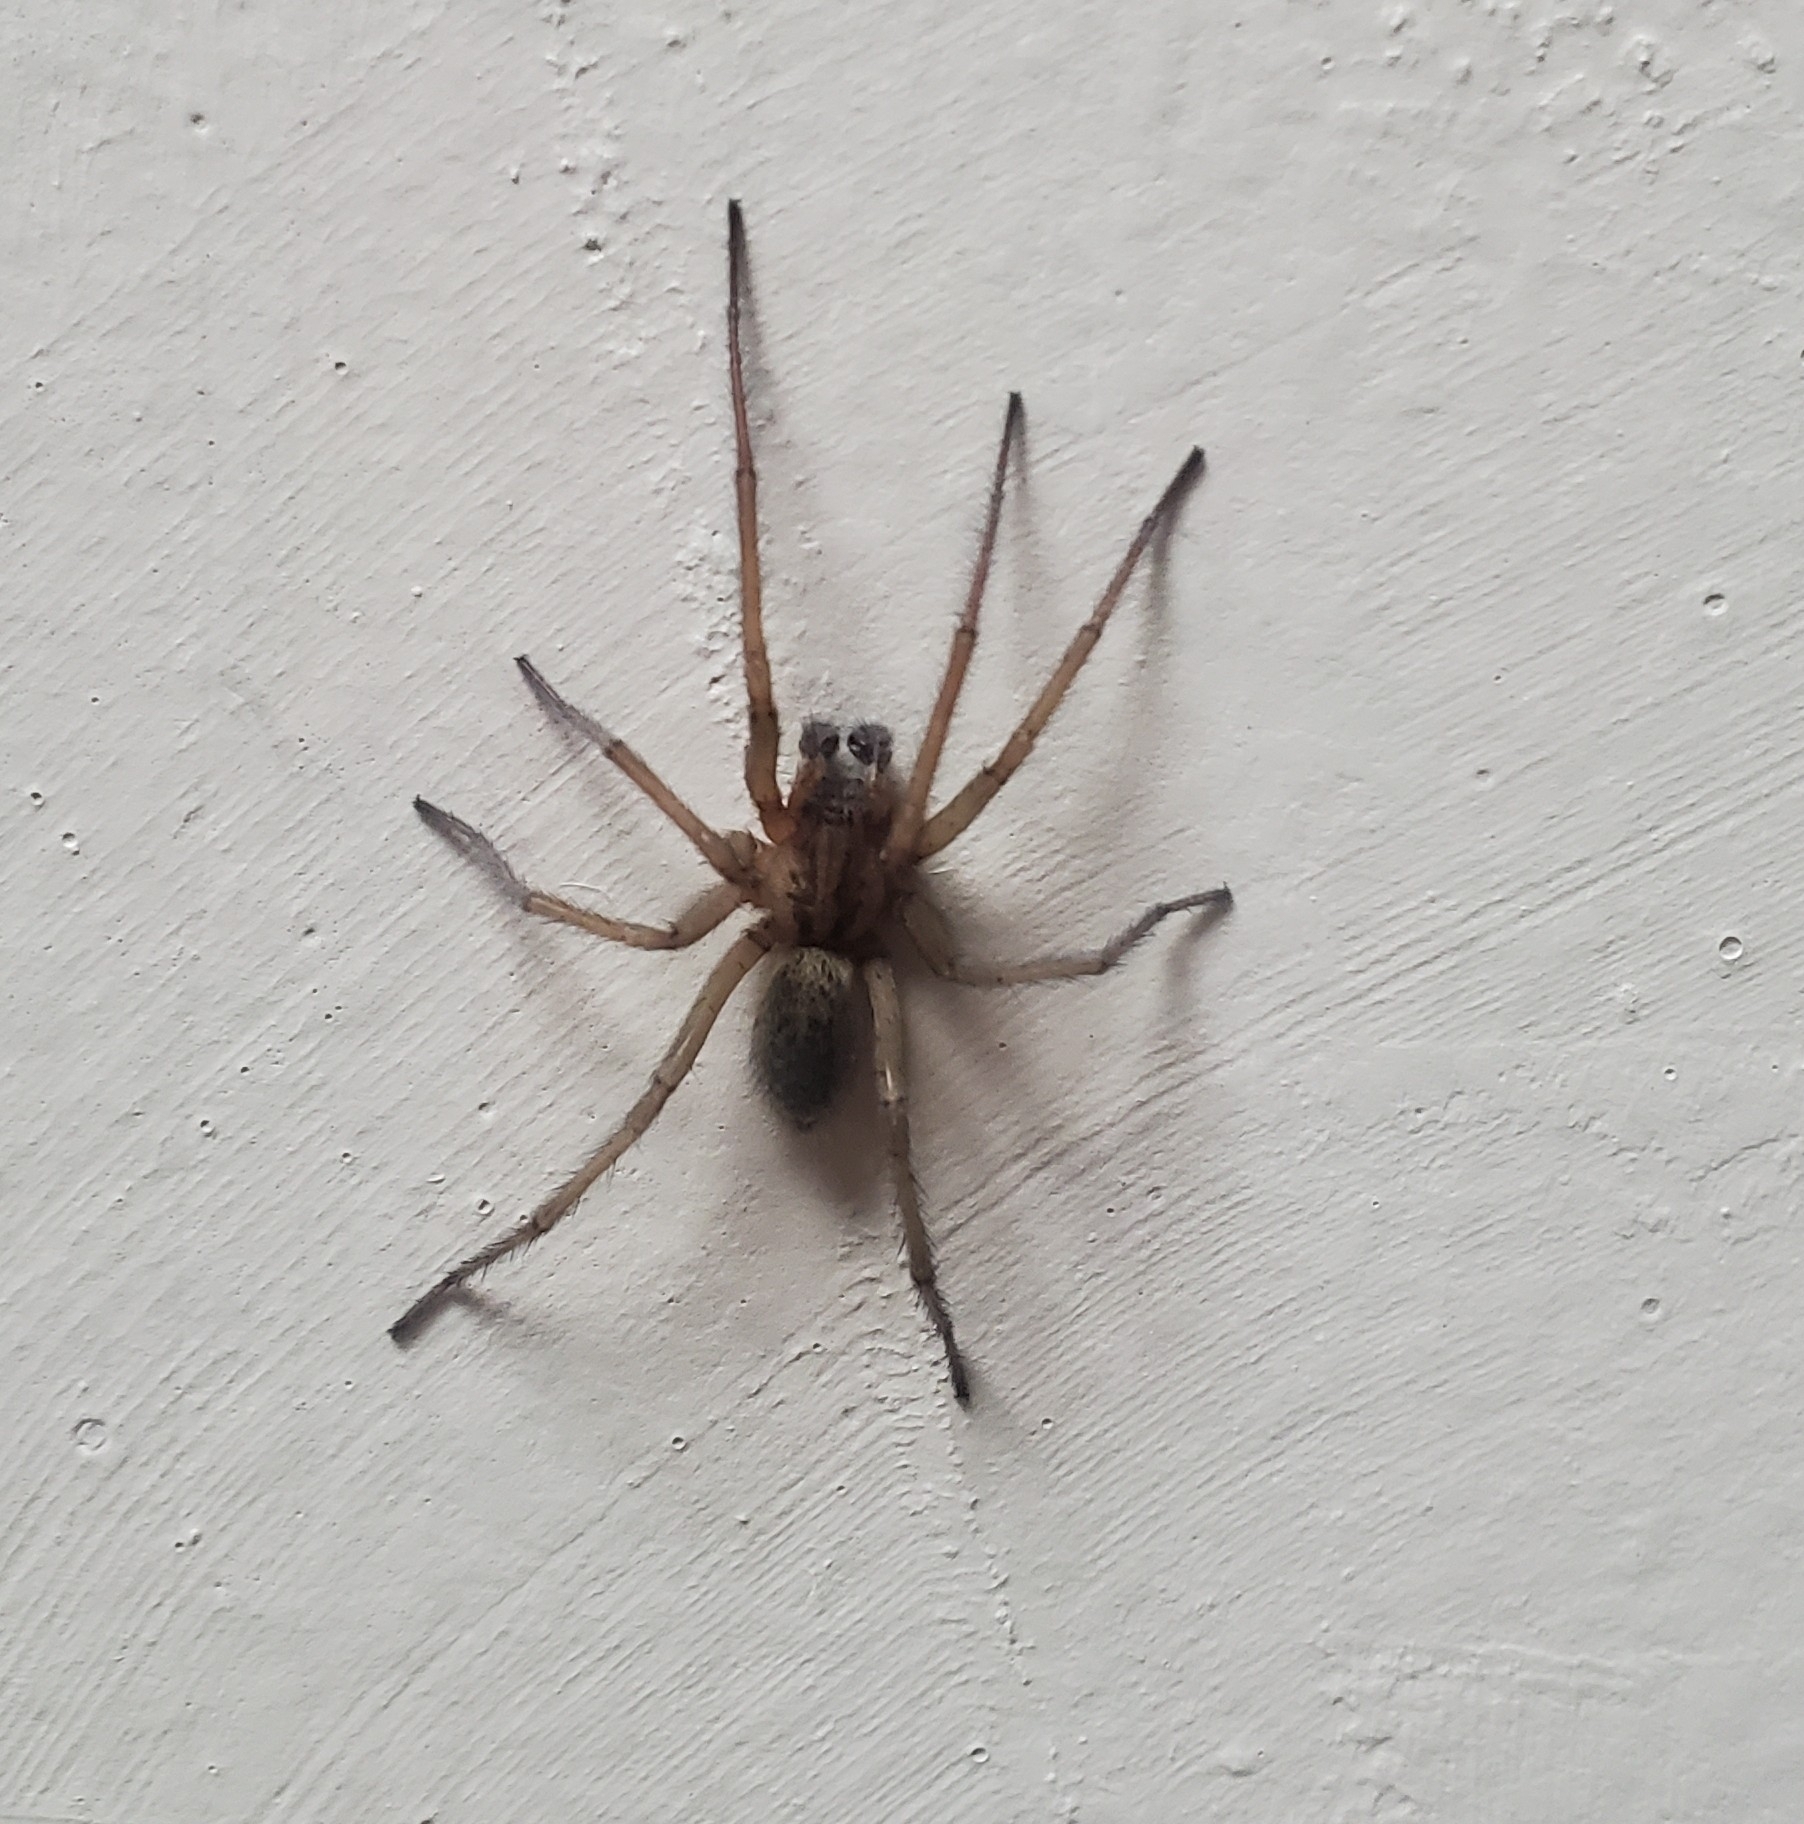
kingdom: Animalia
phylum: Arthropoda
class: Arachnida
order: Araneae
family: Agelenidae
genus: Eratigena
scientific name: Eratigena agrestis
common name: Hobo spider
